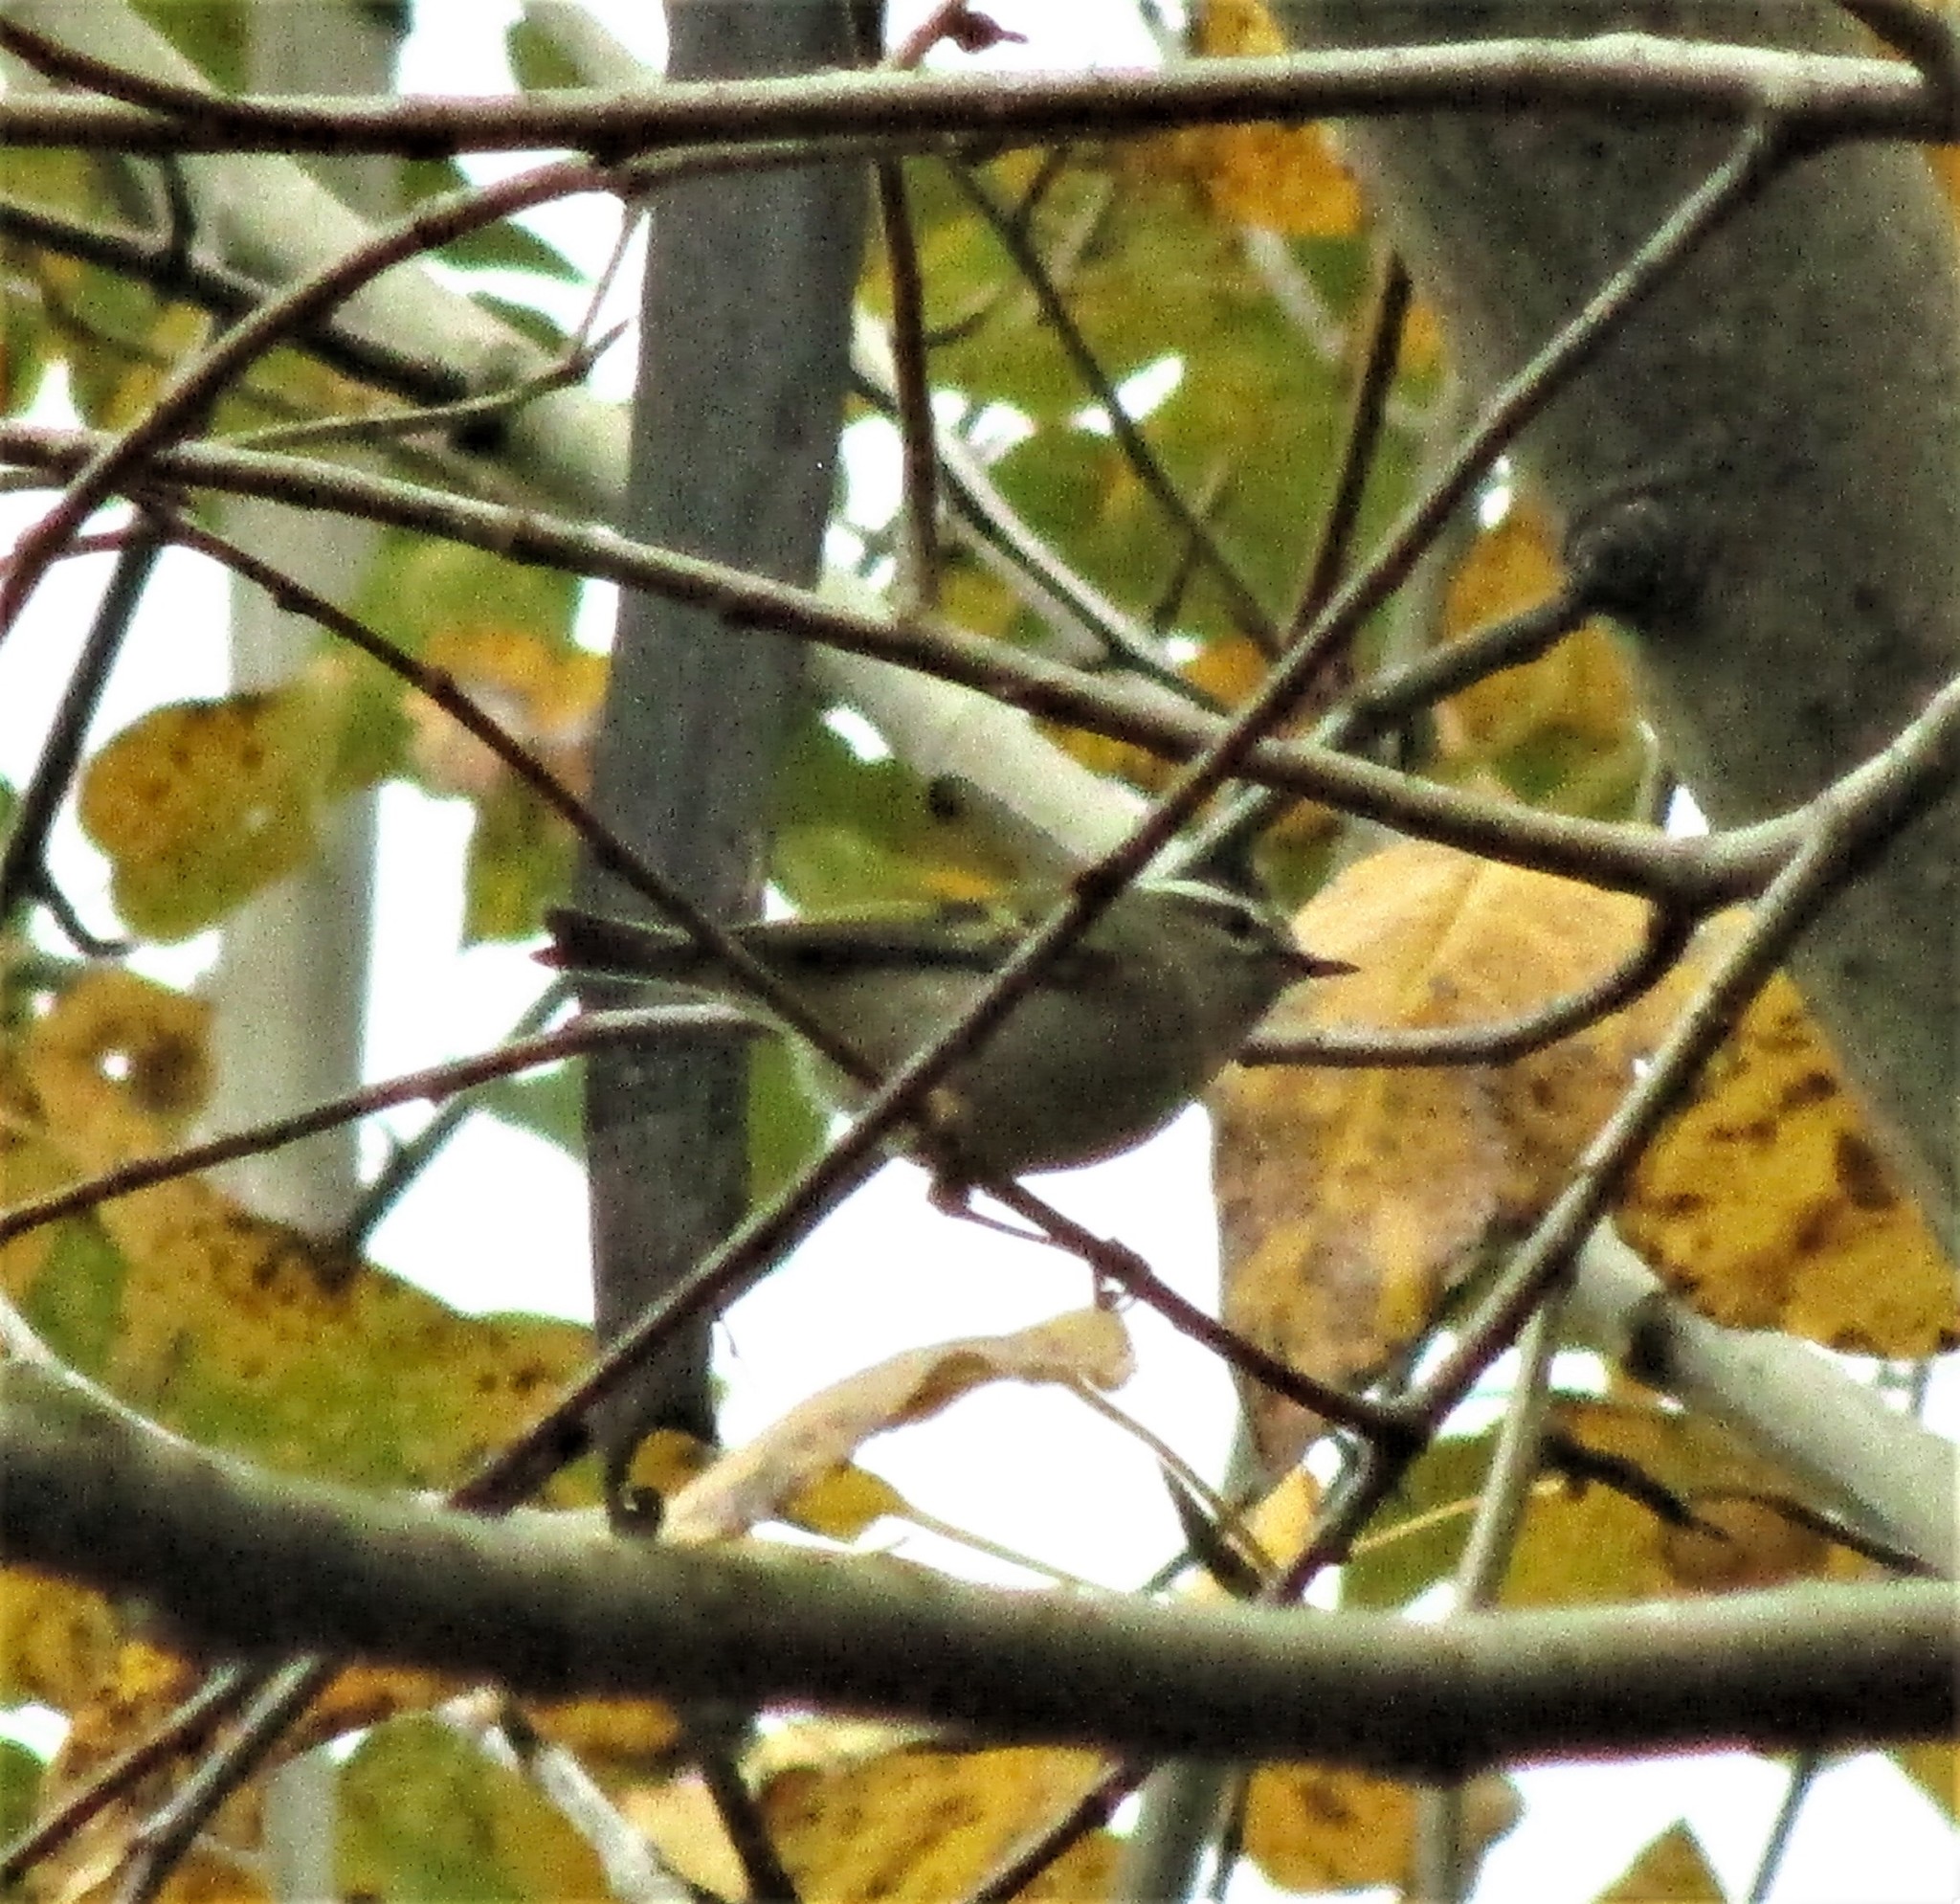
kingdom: Animalia
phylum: Chordata
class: Aves
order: Passeriformes
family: Regulidae
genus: Regulus
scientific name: Regulus satrapa
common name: Golden-crowned kinglet
